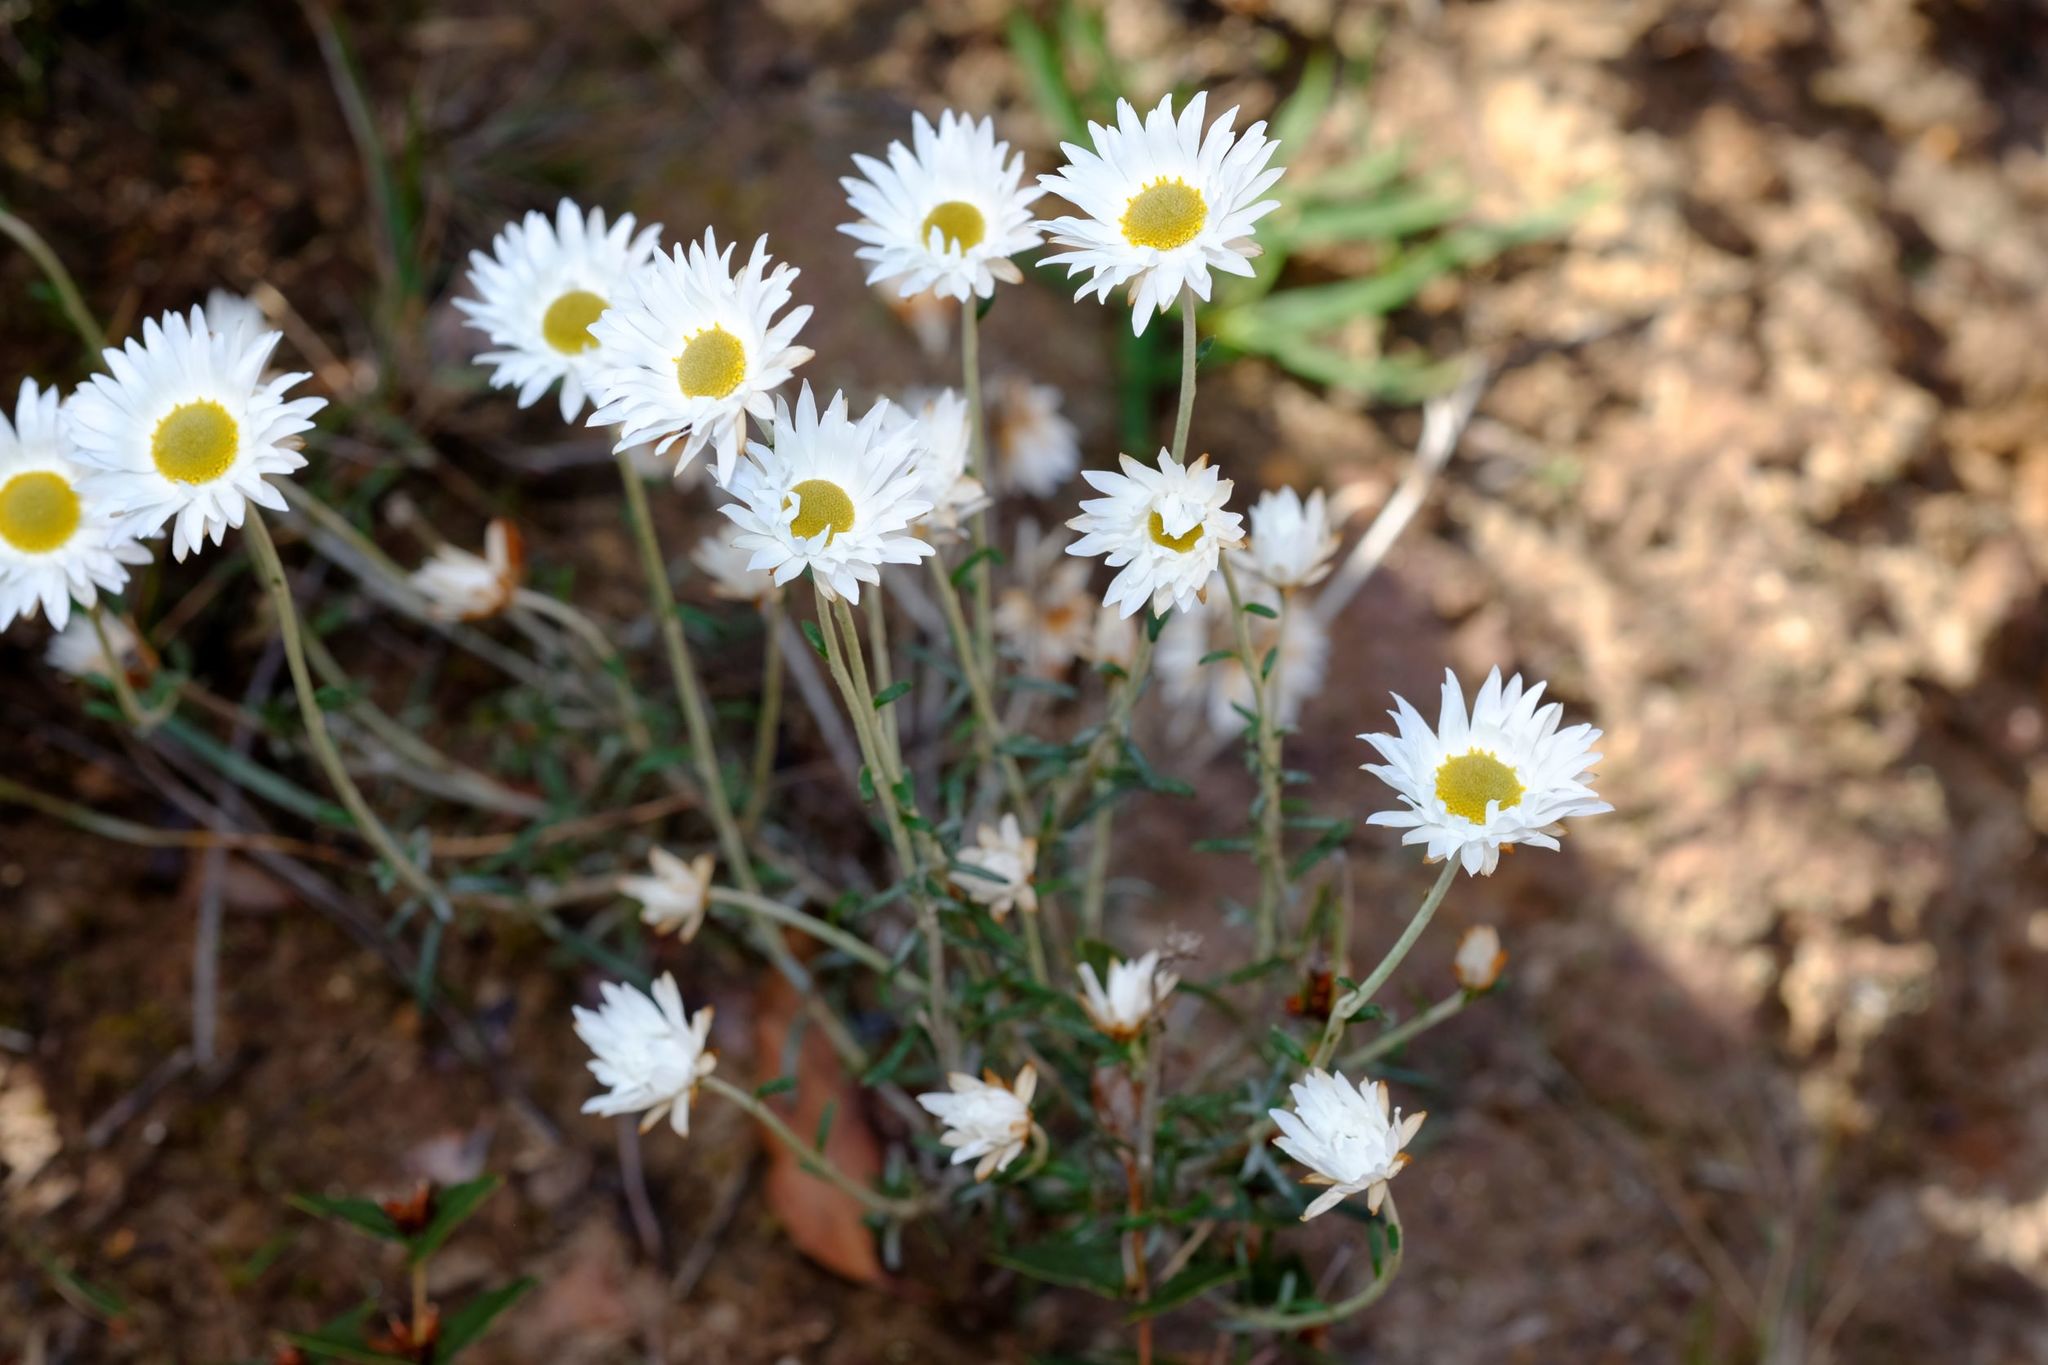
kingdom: Plantae
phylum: Tracheophyta
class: Magnoliopsida
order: Asterales
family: Asteraceae
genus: Argentipallium
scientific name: Argentipallium obtusifolium
